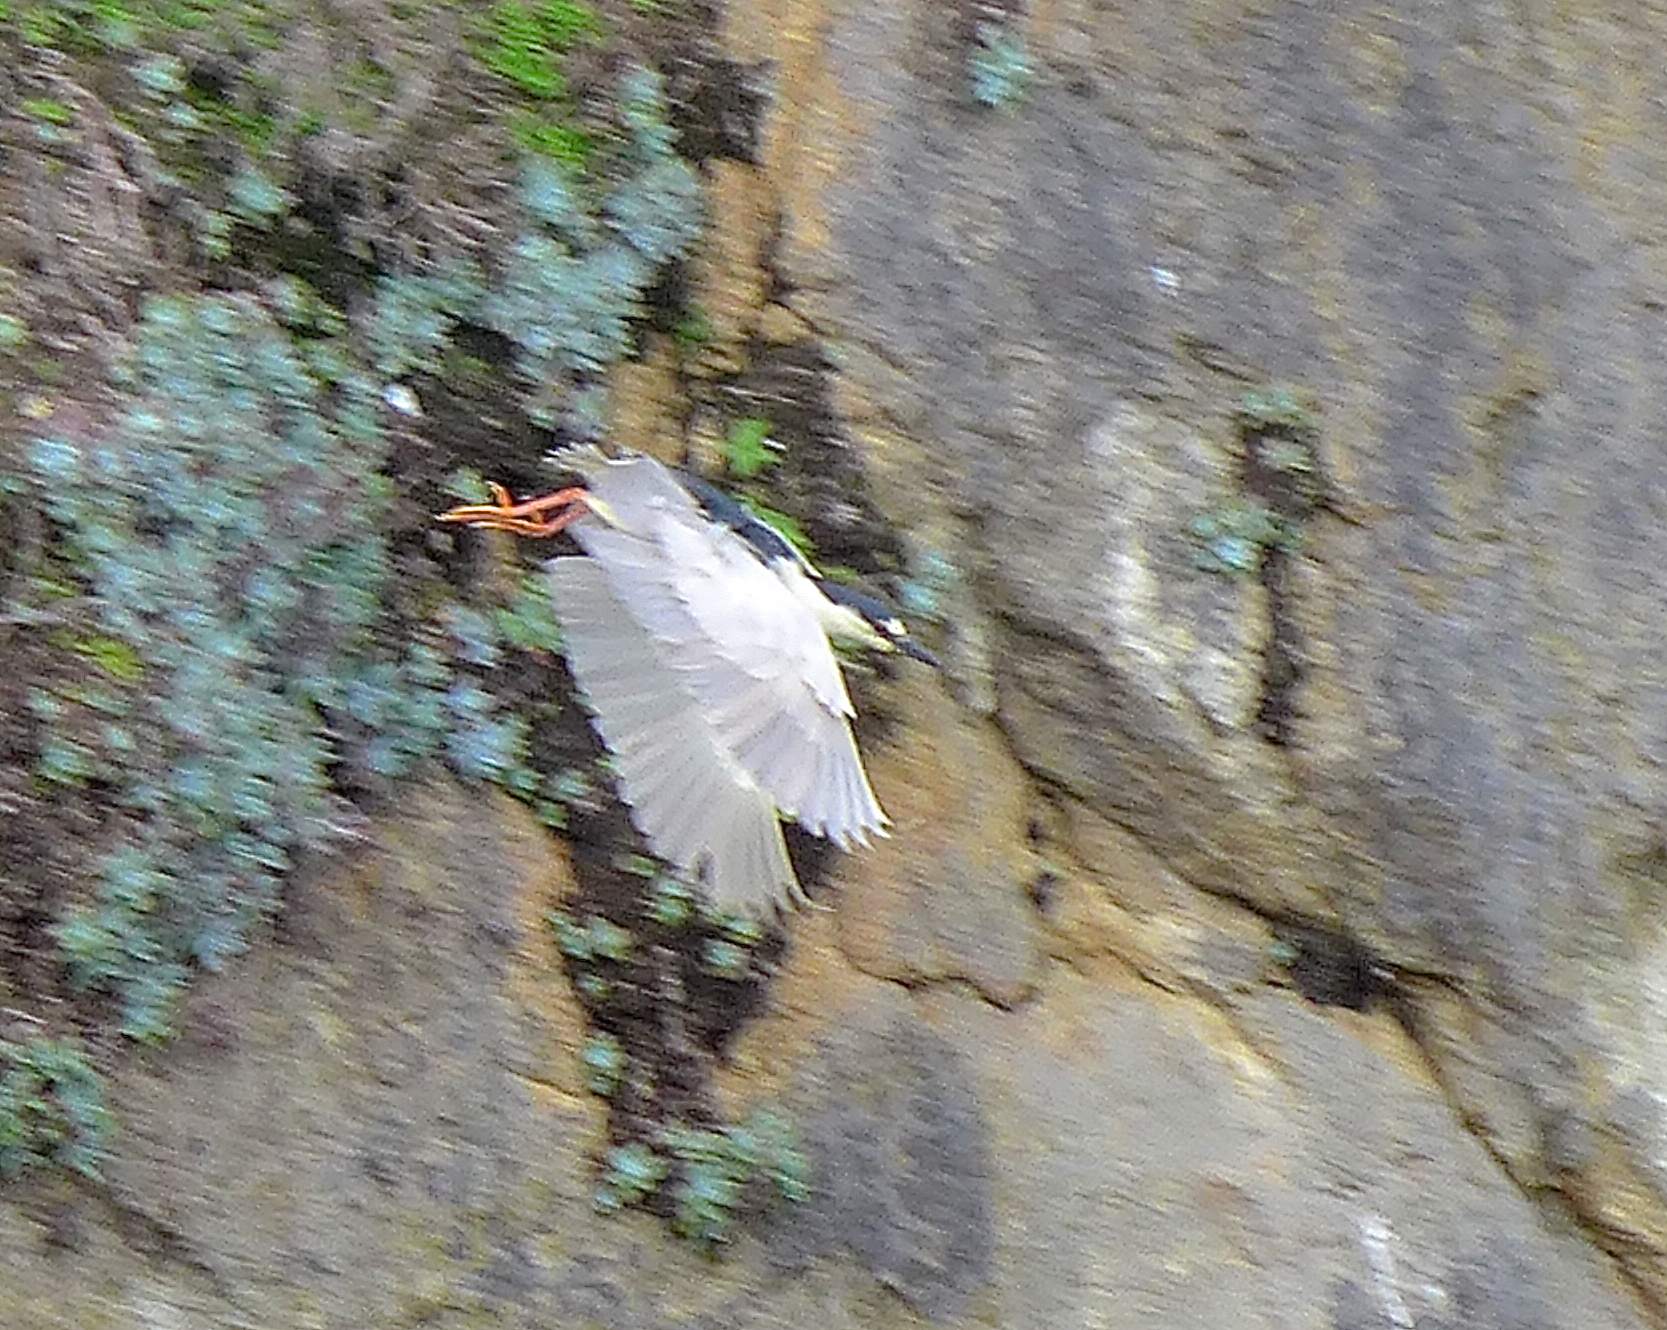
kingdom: Animalia
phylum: Chordata
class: Aves
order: Pelecaniformes
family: Ardeidae
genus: Nycticorax
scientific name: Nycticorax nycticorax
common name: Black-crowned night heron
